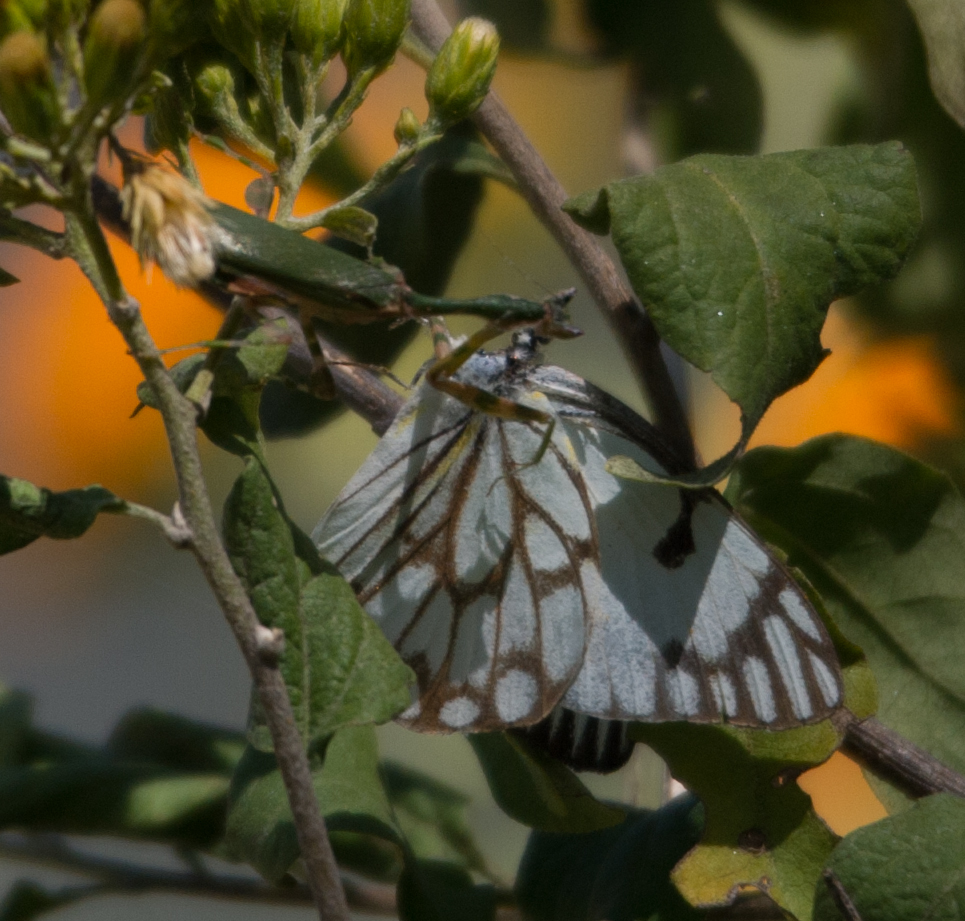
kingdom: Animalia
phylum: Arthropoda
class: Insecta
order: Lepidoptera
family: Pieridae
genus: Belenois
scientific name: Belenois aurota
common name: Brown-veined white
